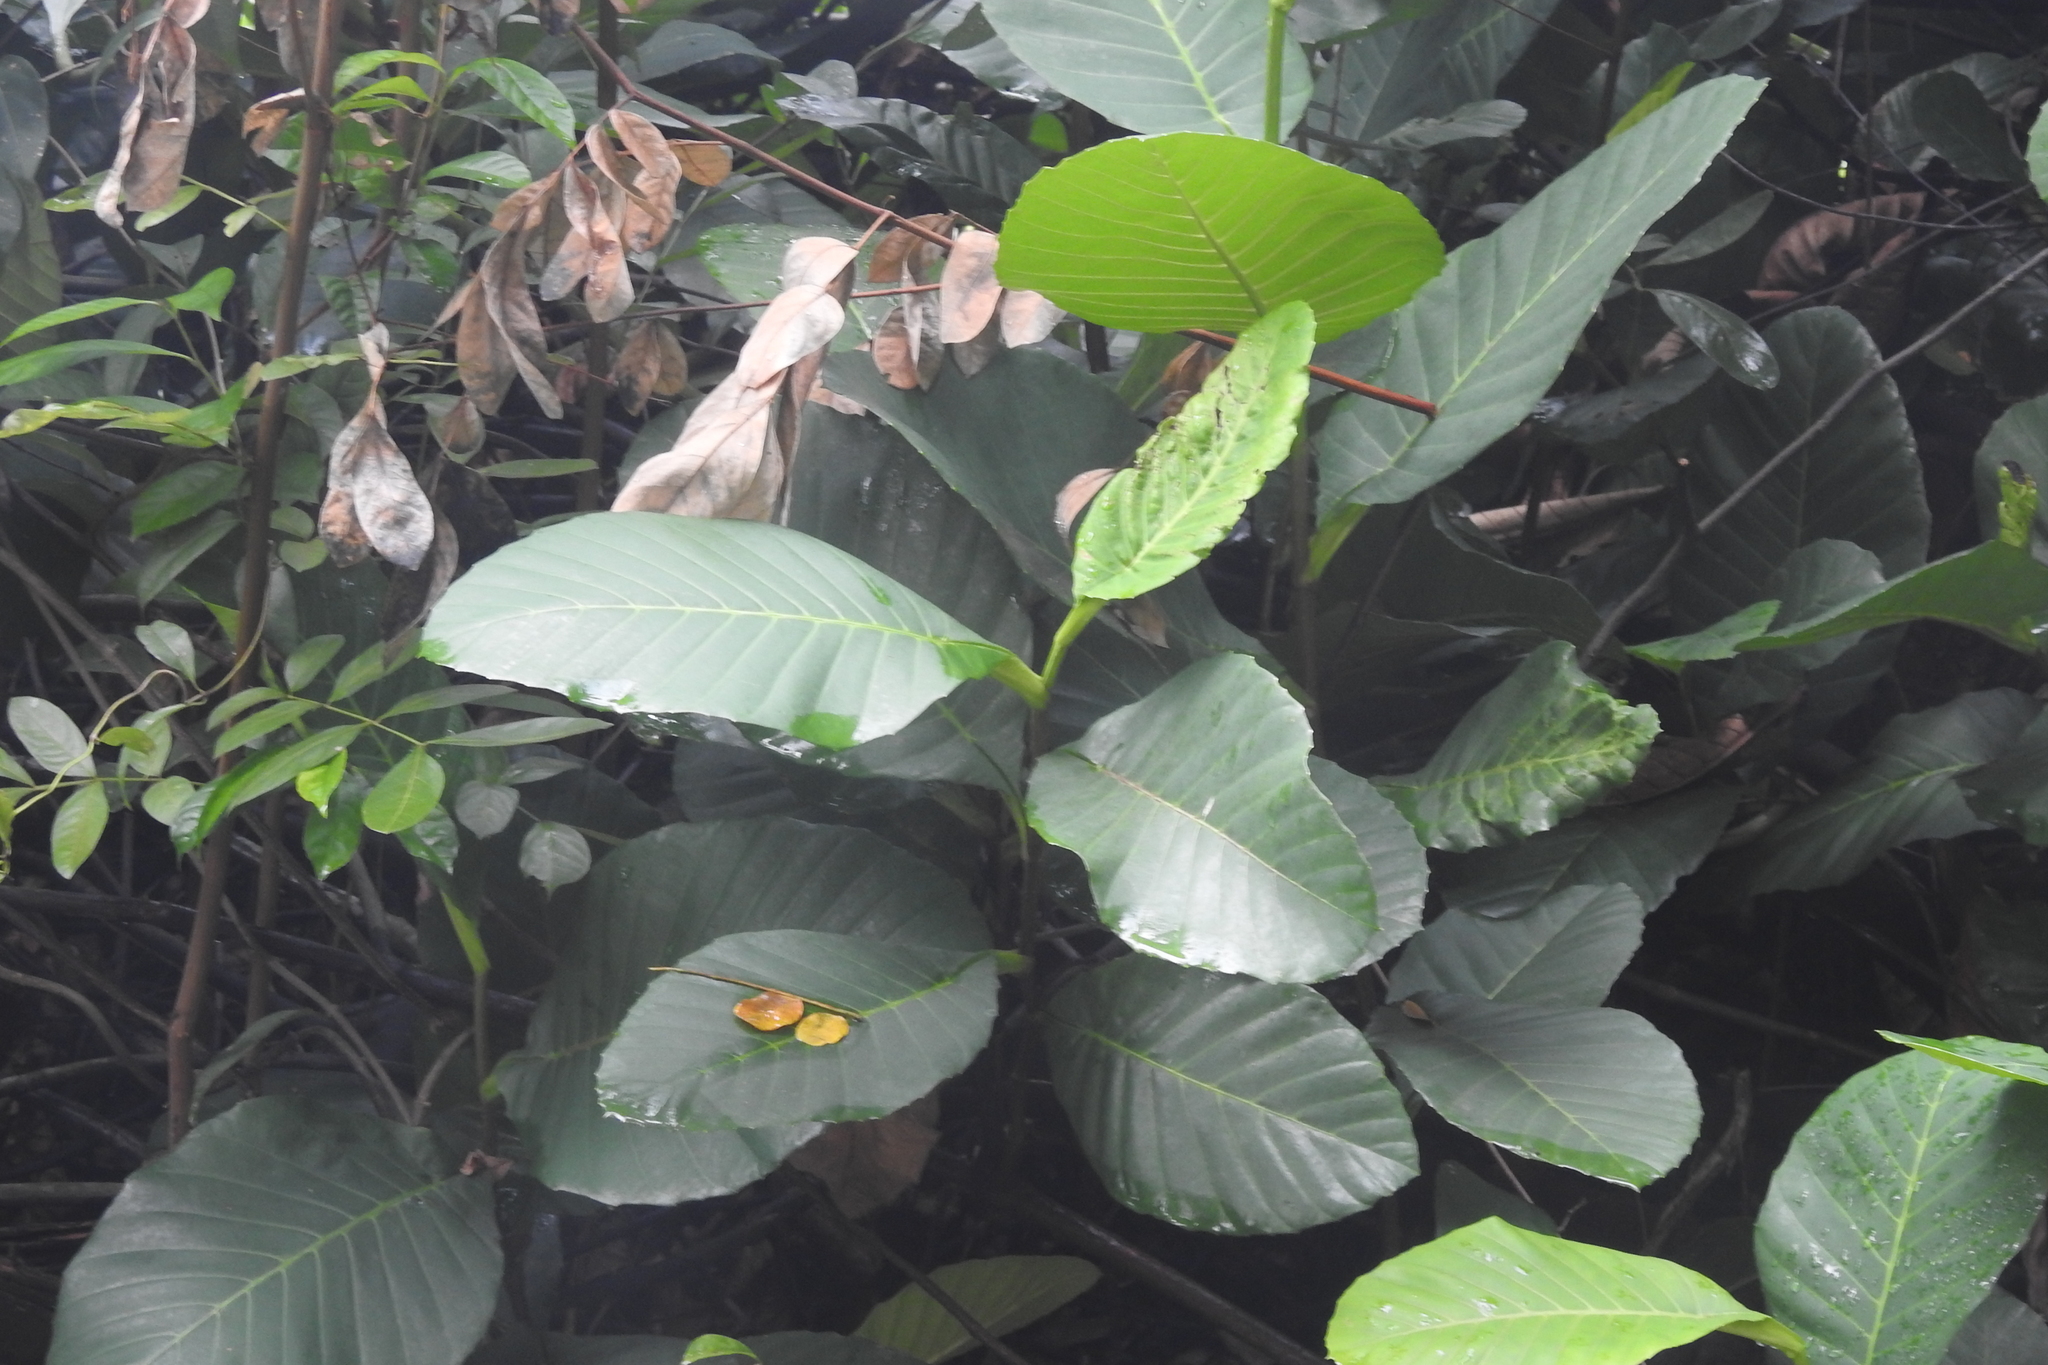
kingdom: Plantae
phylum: Tracheophyta
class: Magnoliopsida
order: Dilleniales
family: Dilleniaceae
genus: Dillenia
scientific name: Dillenia suffruticosa
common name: Shrubby dillenia
